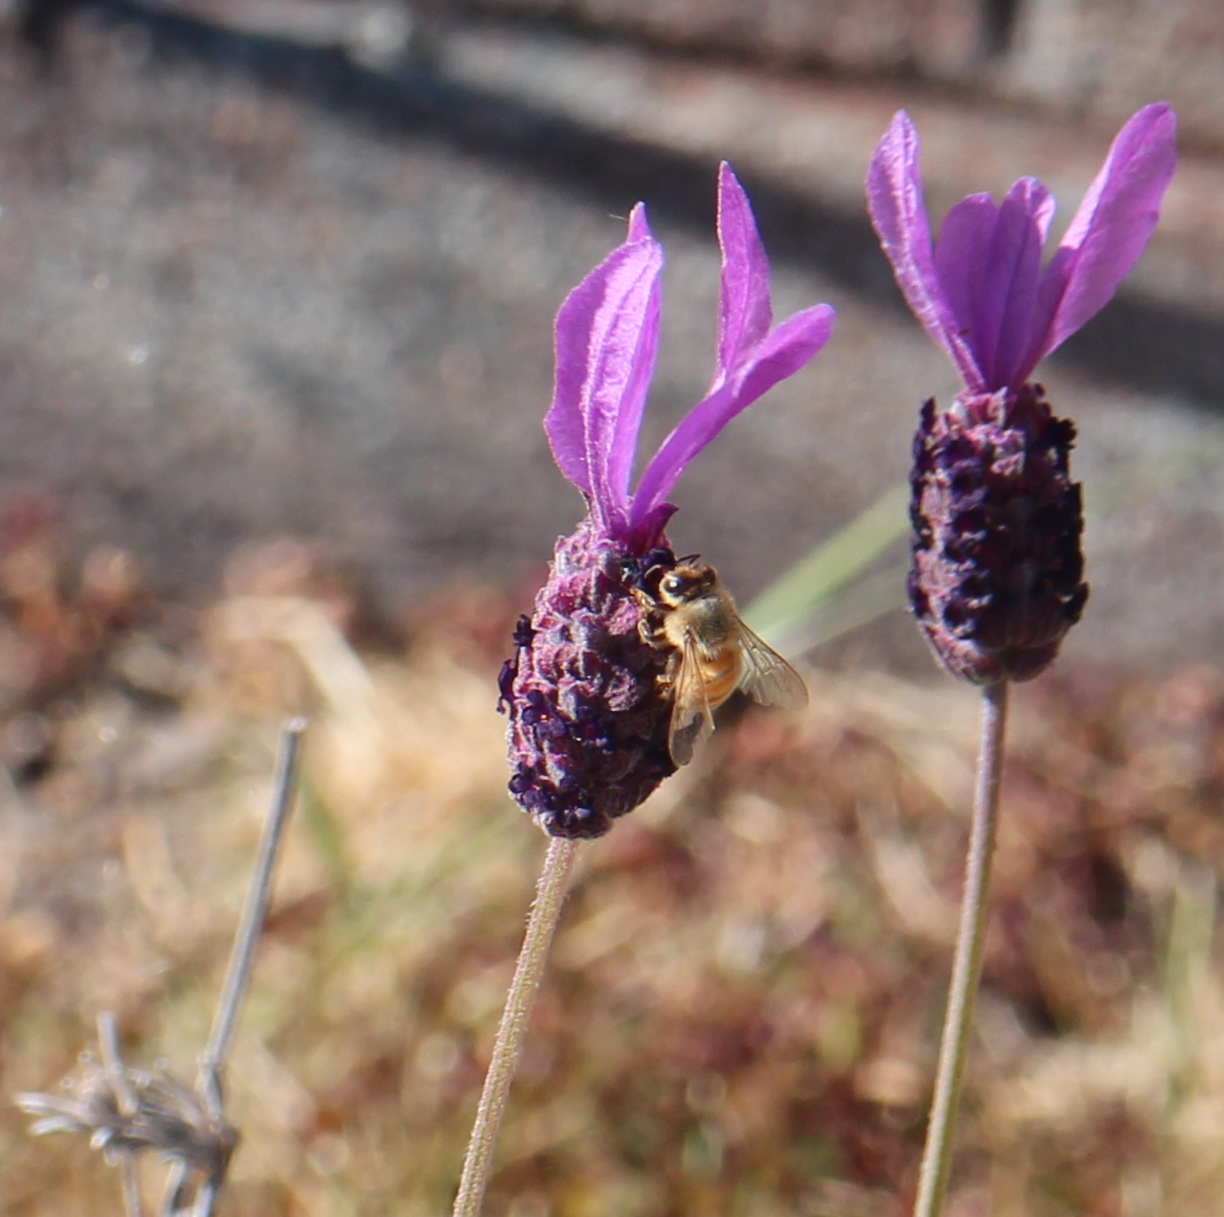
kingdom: Animalia
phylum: Arthropoda
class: Insecta
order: Hymenoptera
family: Apidae
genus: Apis
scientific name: Apis mellifera
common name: Honey bee
